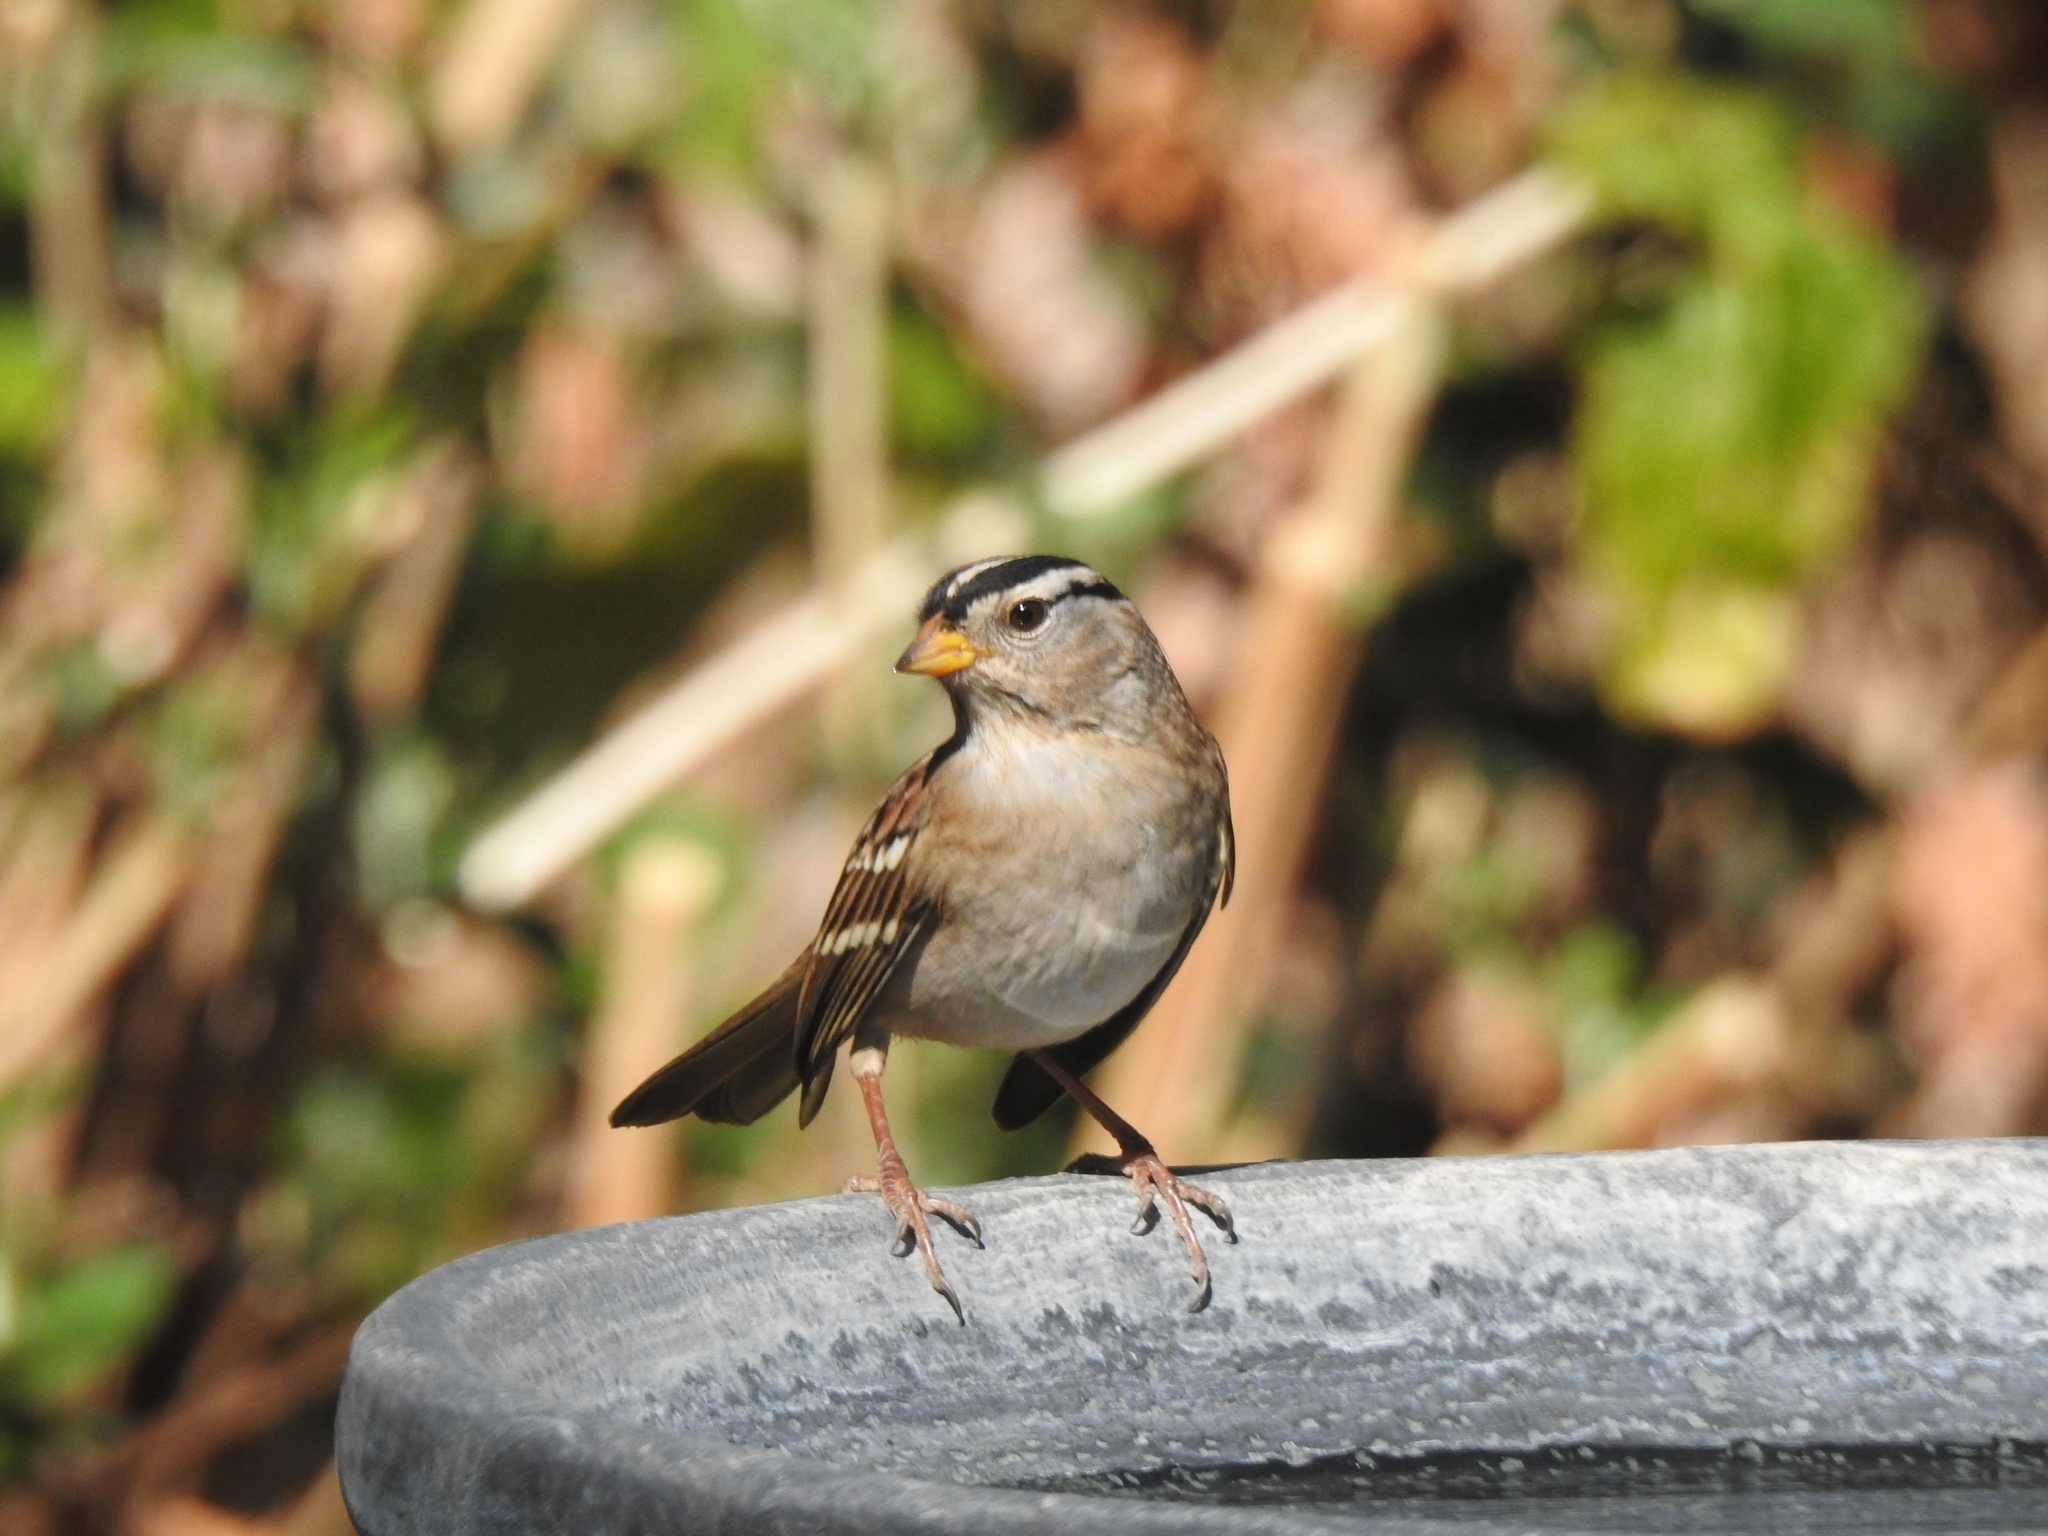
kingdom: Animalia
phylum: Chordata
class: Aves
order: Passeriformes
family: Passerellidae
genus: Zonotrichia
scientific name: Zonotrichia leucophrys
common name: White-crowned sparrow
